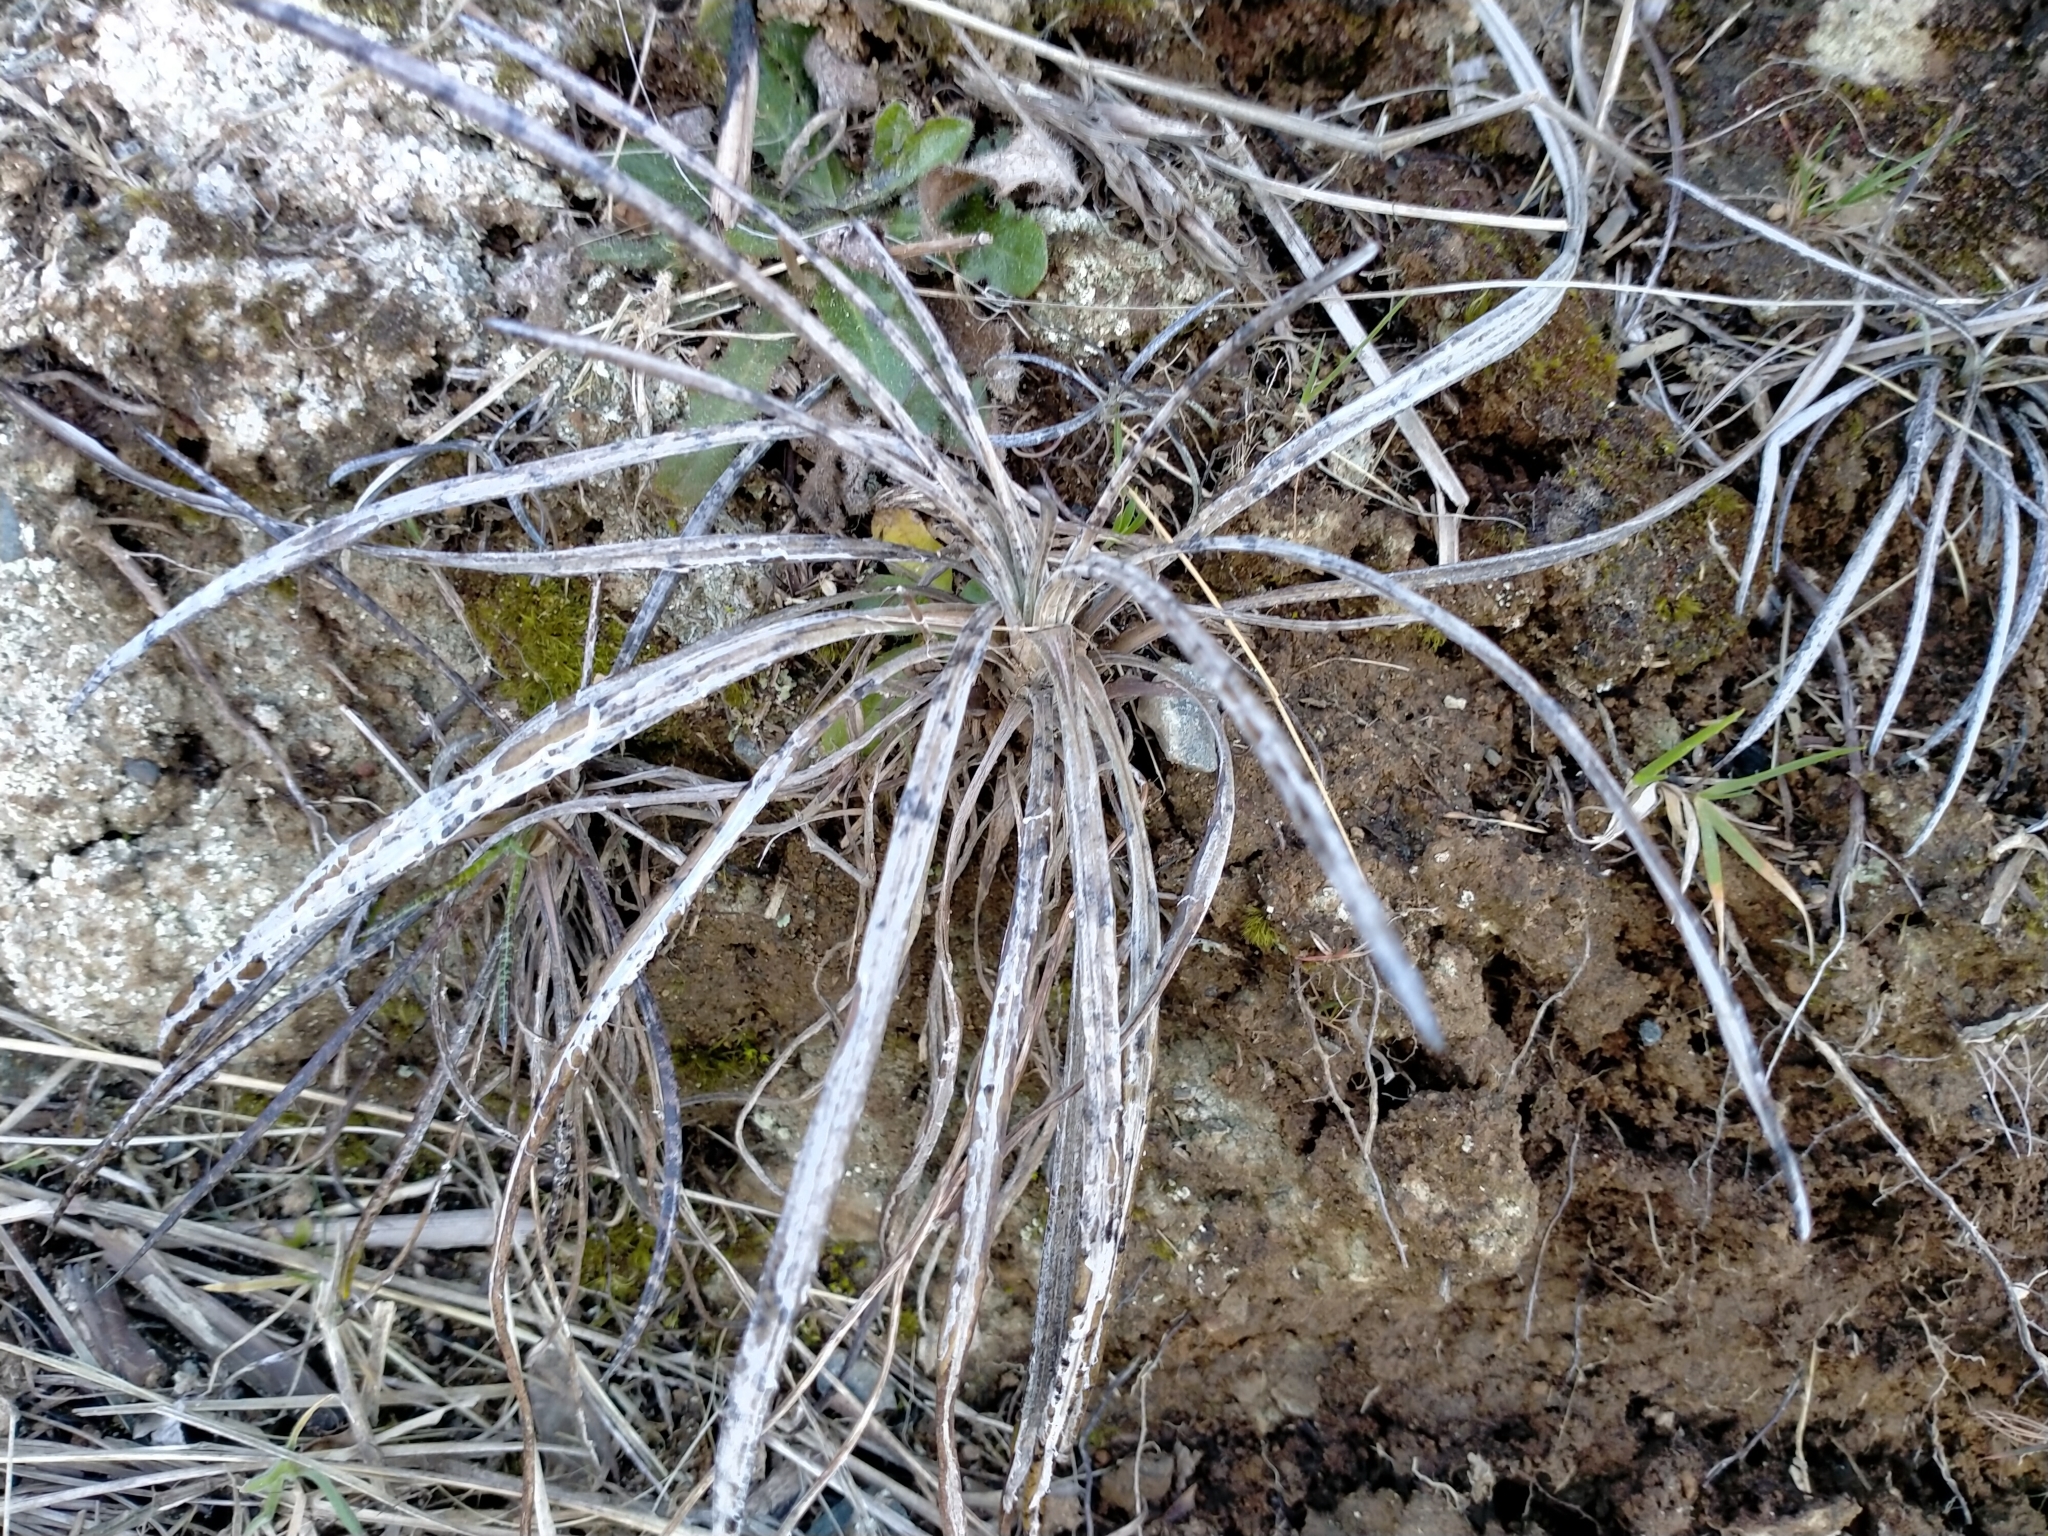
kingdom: Plantae
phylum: Tracheophyta
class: Magnoliopsida
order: Asterales
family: Asteraceae
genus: Celmisia
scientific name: Celmisia gracilenta
